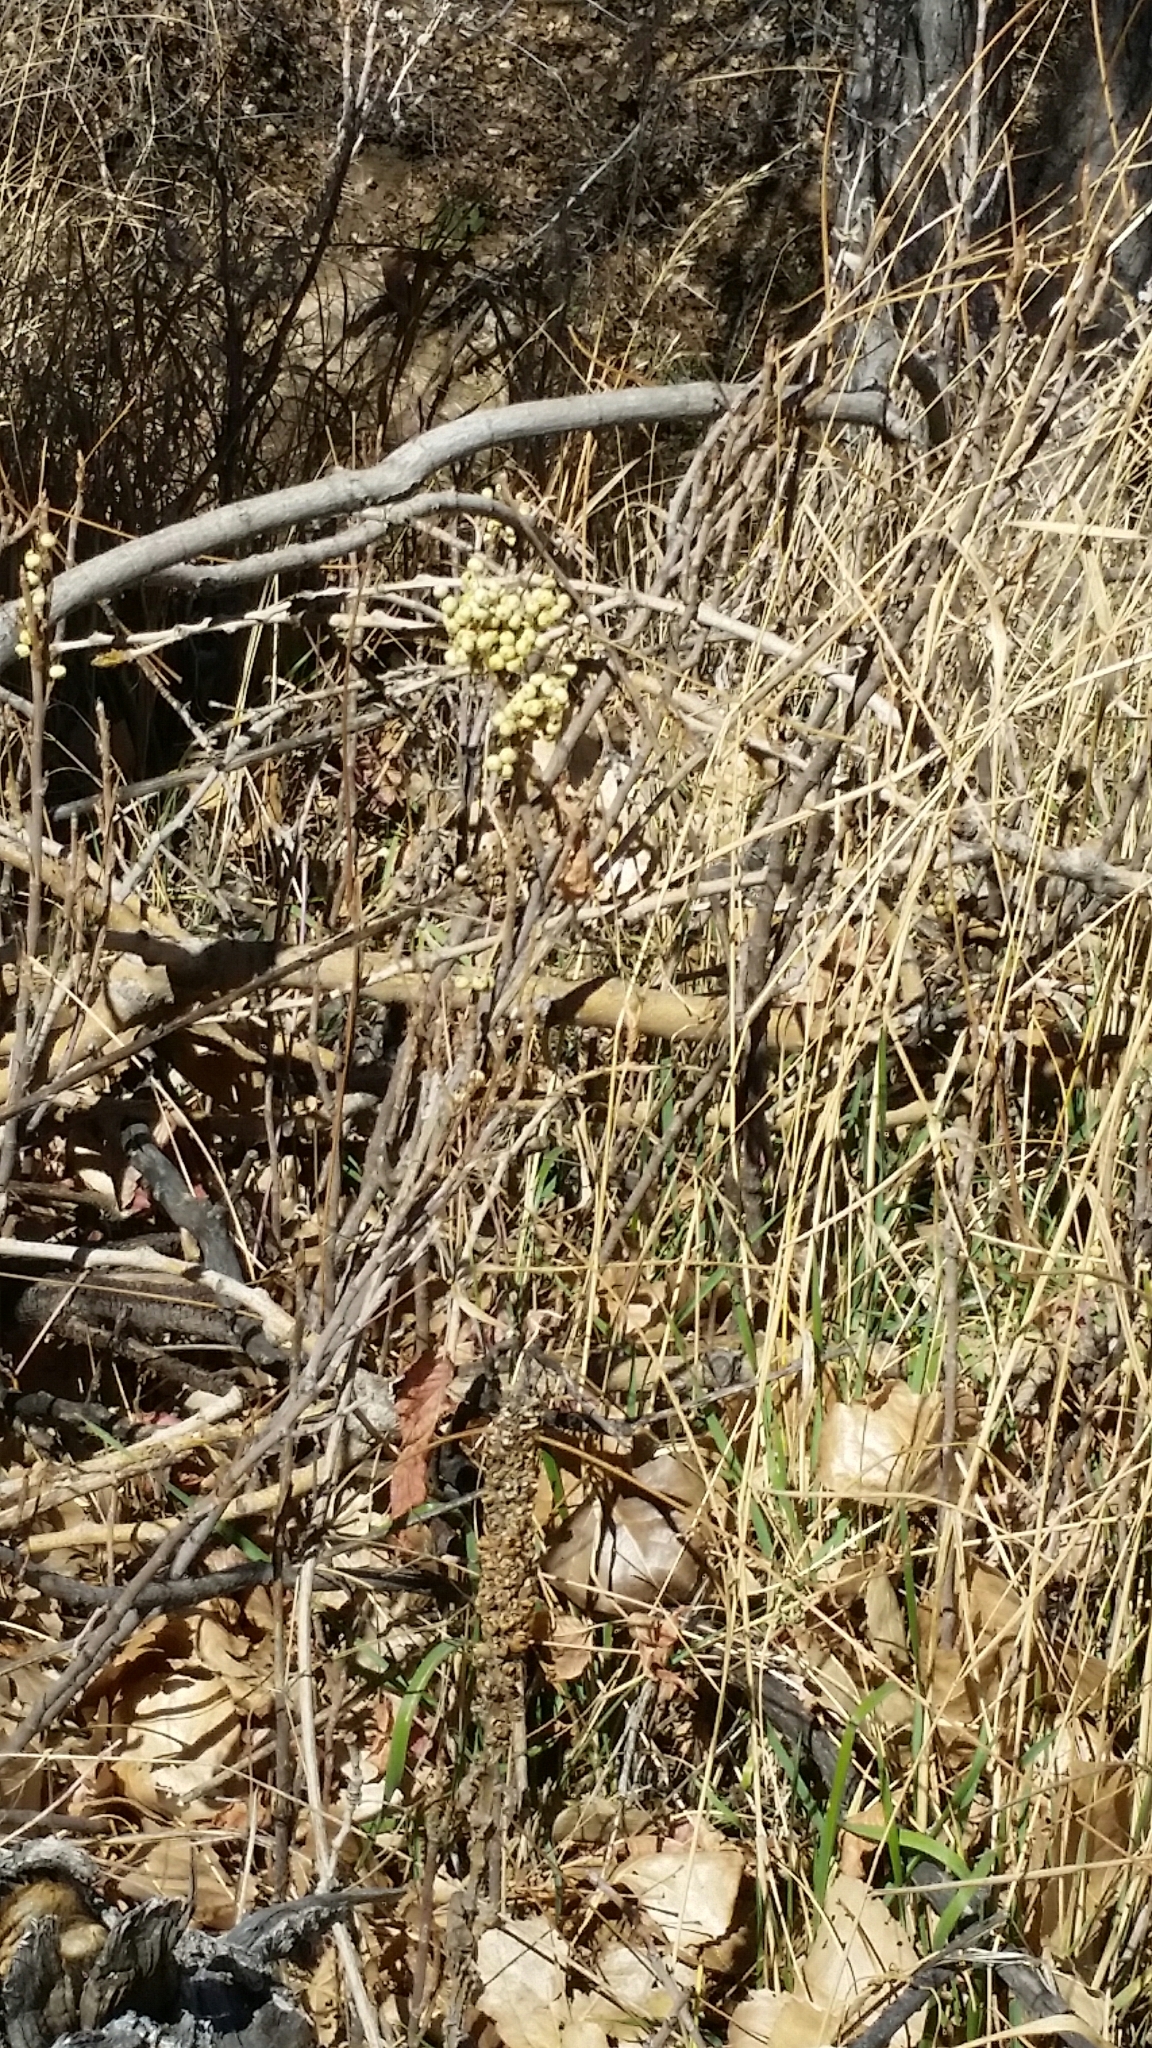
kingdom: Plantae
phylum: Tracheophyta
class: Magnoliopsida
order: Sapindales
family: Anacardiaceae
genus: Toxicodendron
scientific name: Toxicodendron rydbergii
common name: Rydberg's poison-ivy
